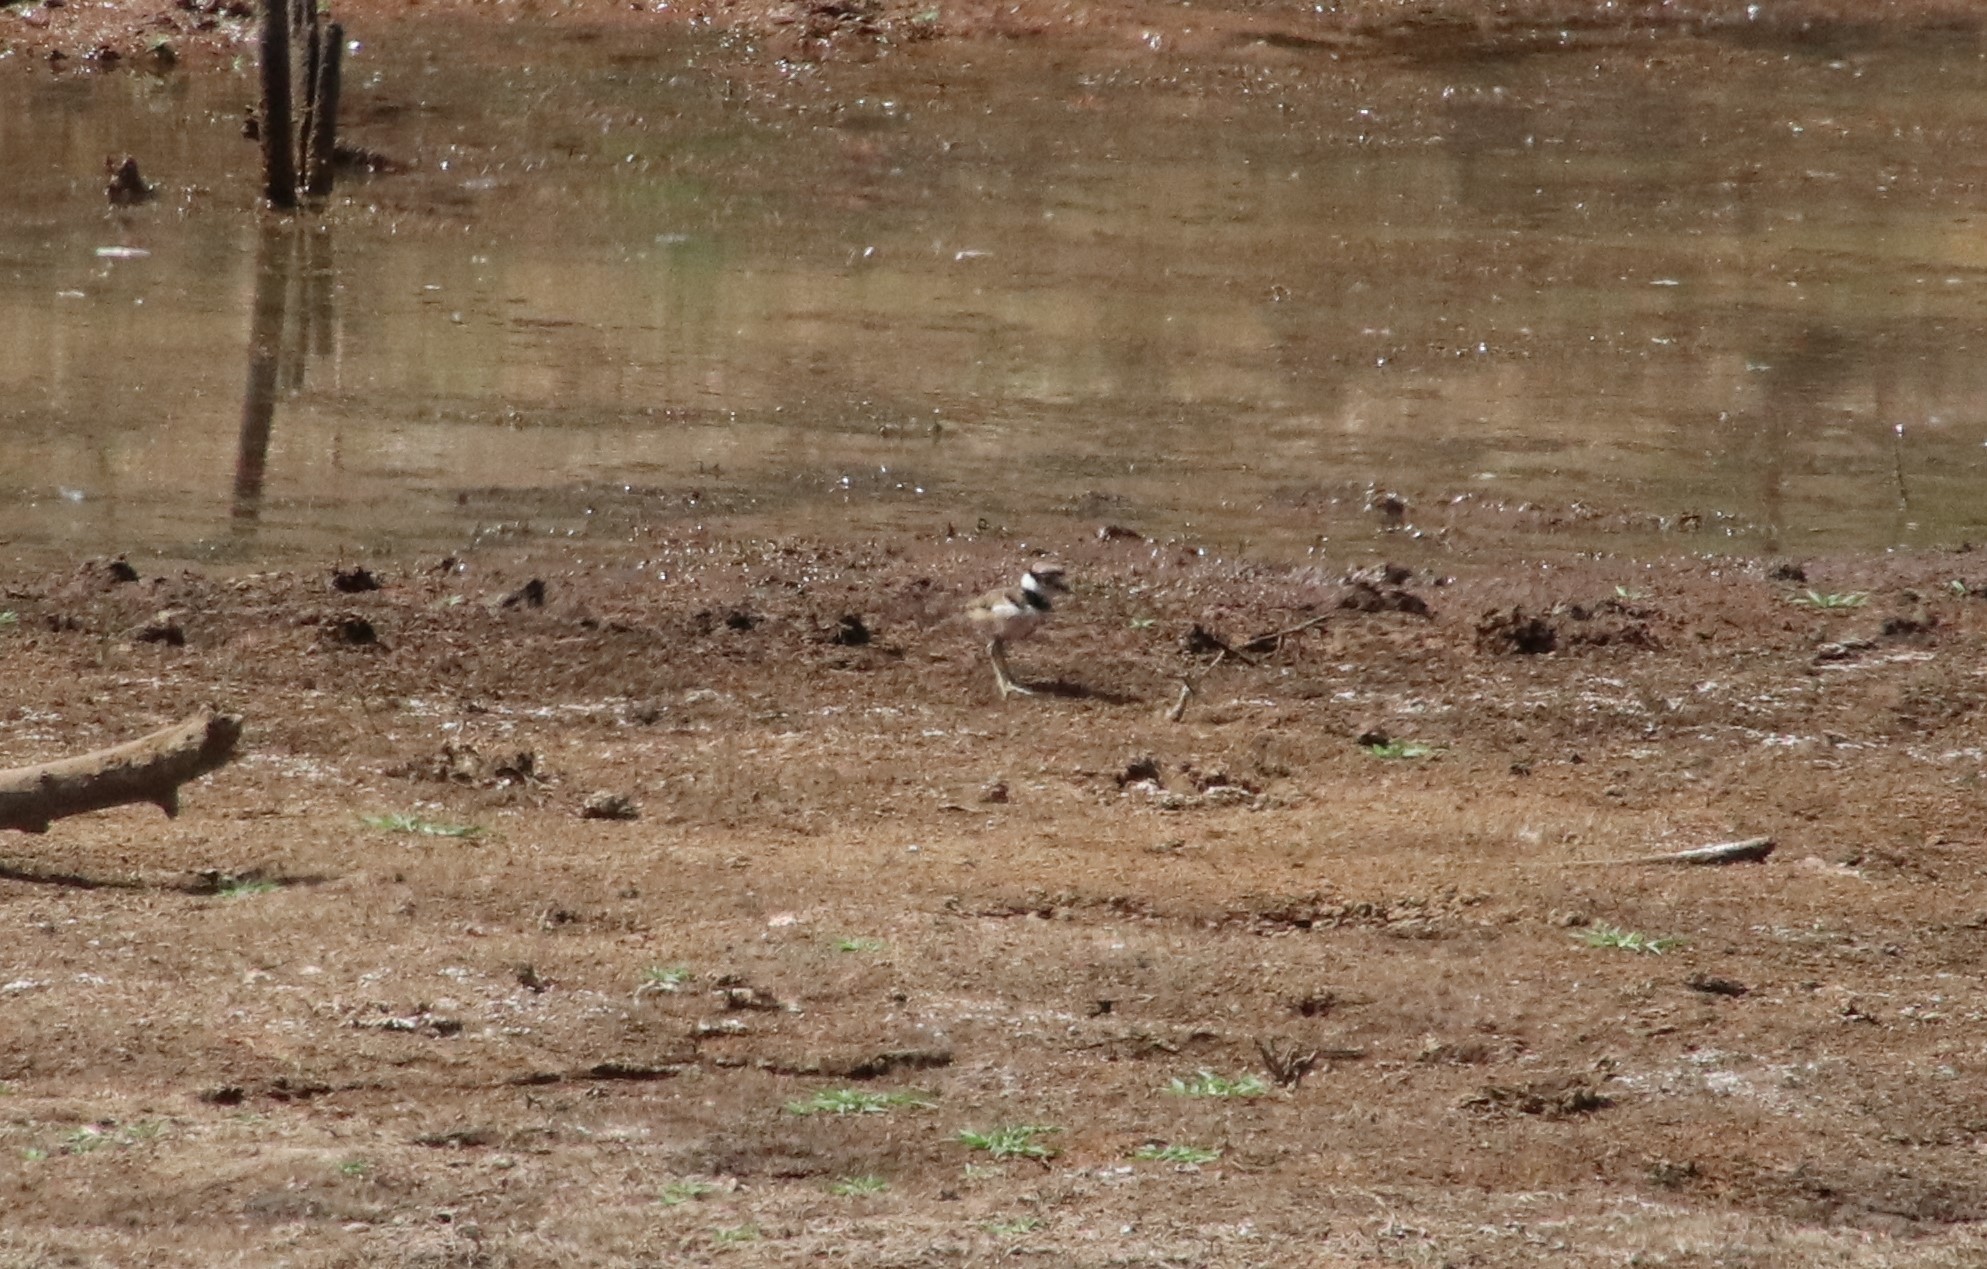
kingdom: Animalia
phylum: Chordata
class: Aves
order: Charadriiformes
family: Charadriidae
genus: Charadrius
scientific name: Charadrius vociferus
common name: Killdeer
